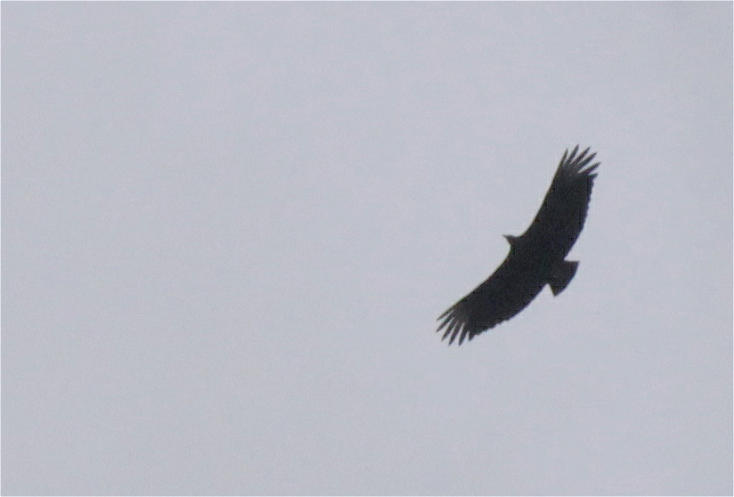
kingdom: Animalia
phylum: Chordata
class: Aves
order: Accipitriformes
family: Cathartidae
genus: Coragyps
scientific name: Coragyps atratus
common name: Black vulture
